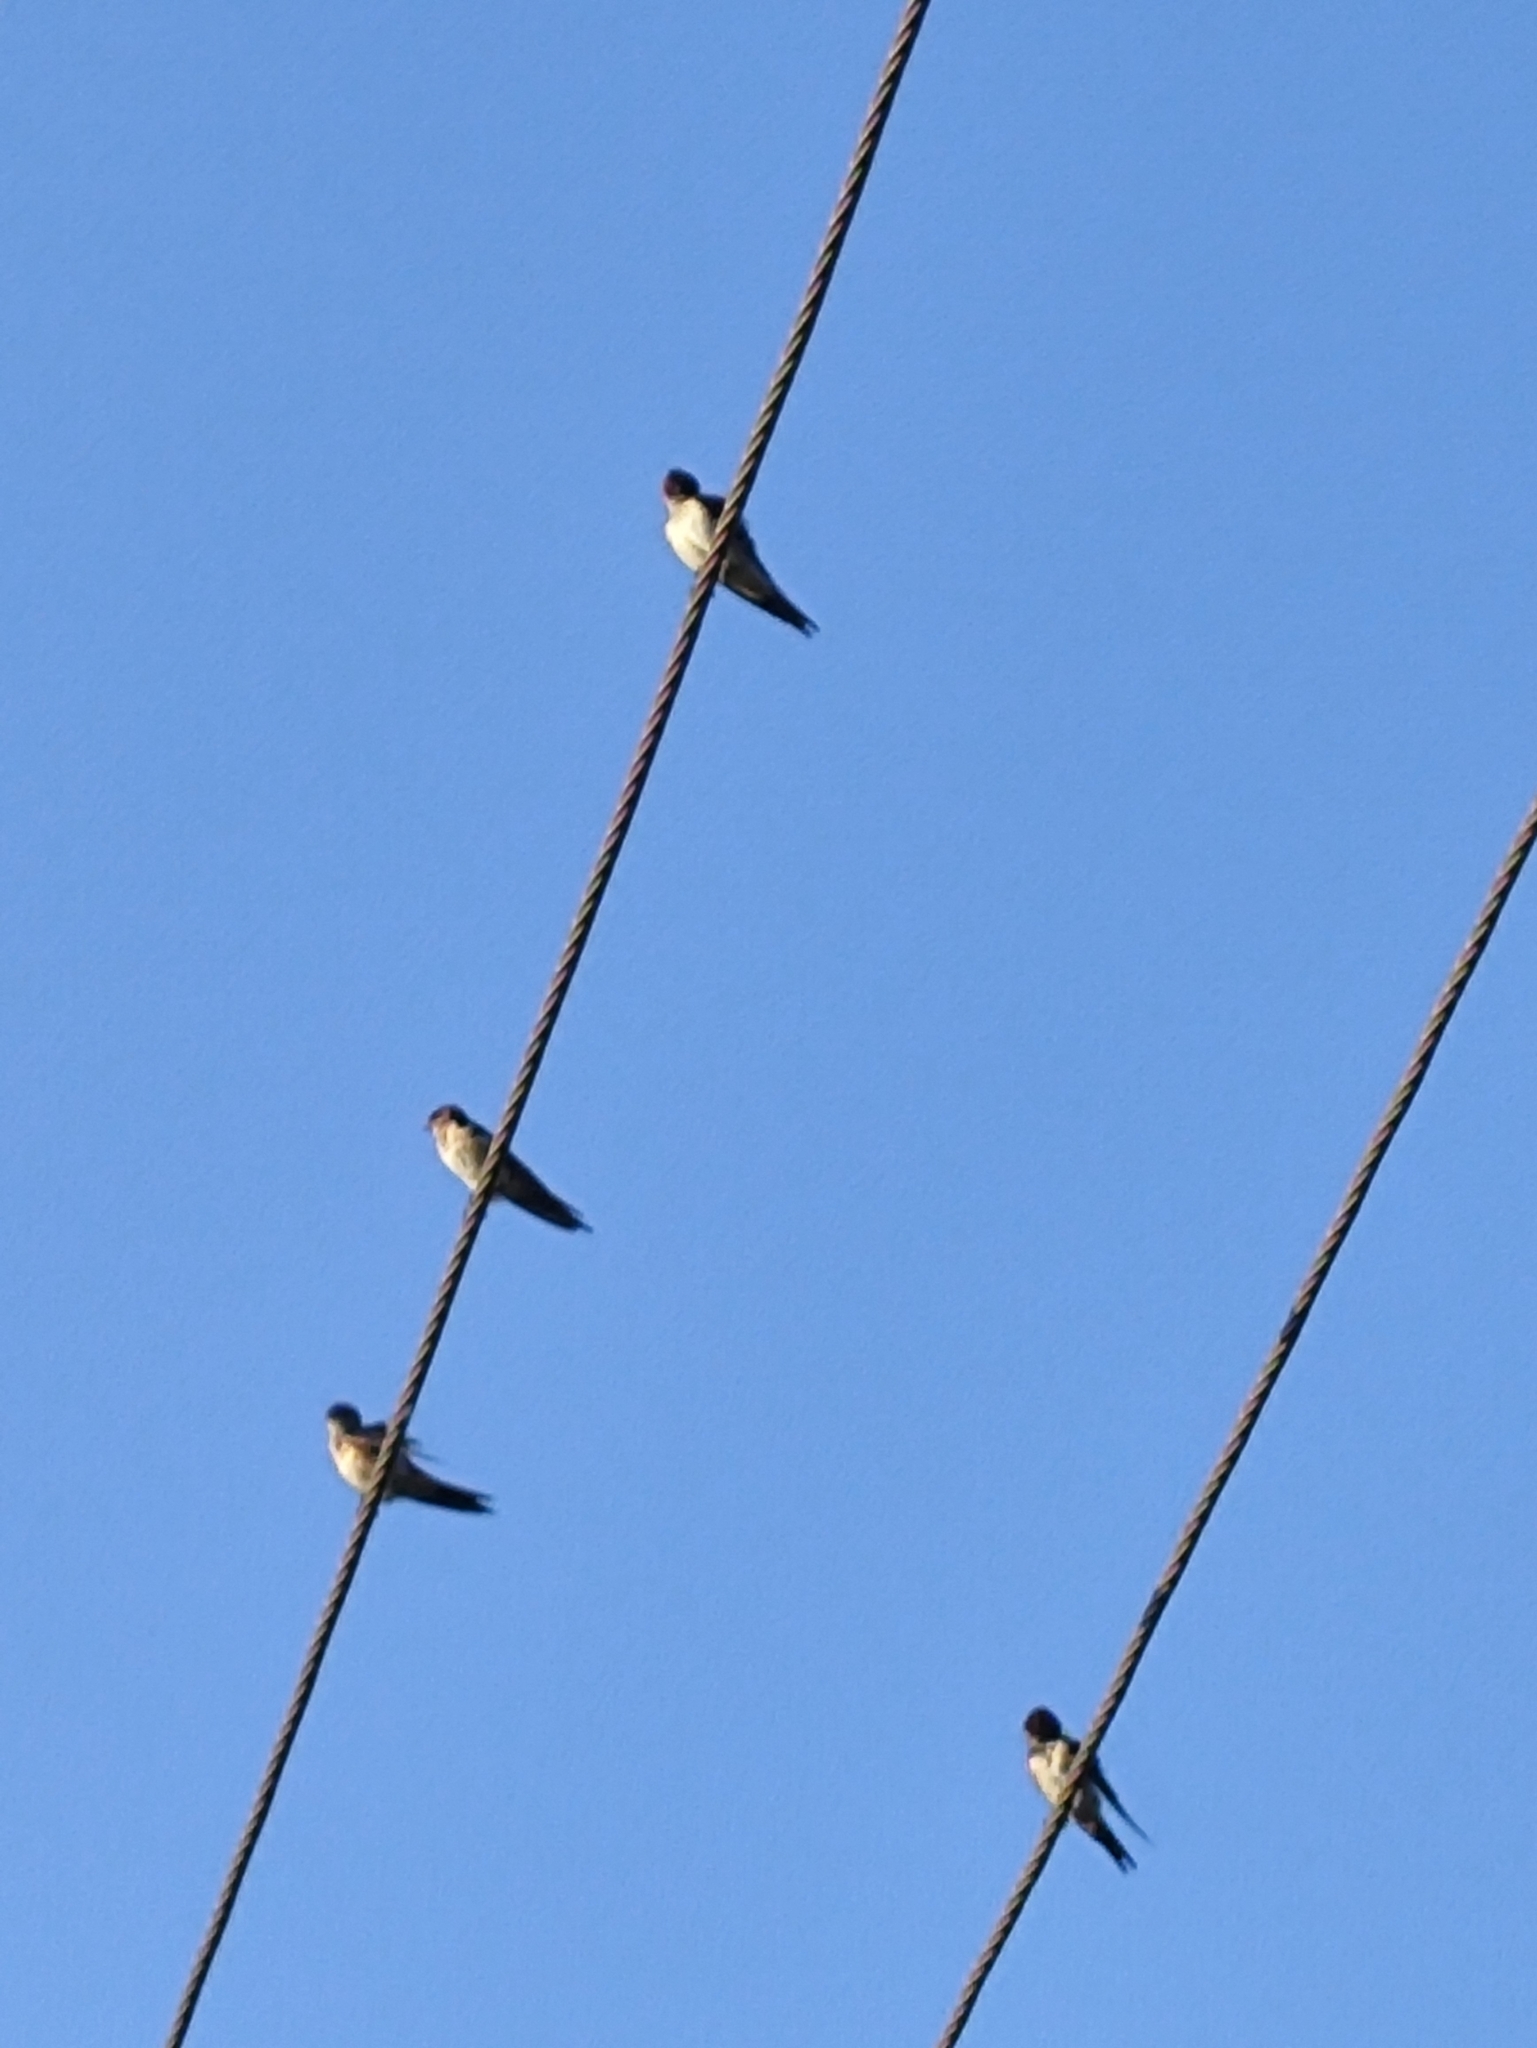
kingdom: Animalia
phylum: Chordata
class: Aves
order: Passeriformes
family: Hirundinidae
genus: Cecropis
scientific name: Cecropis daurica
